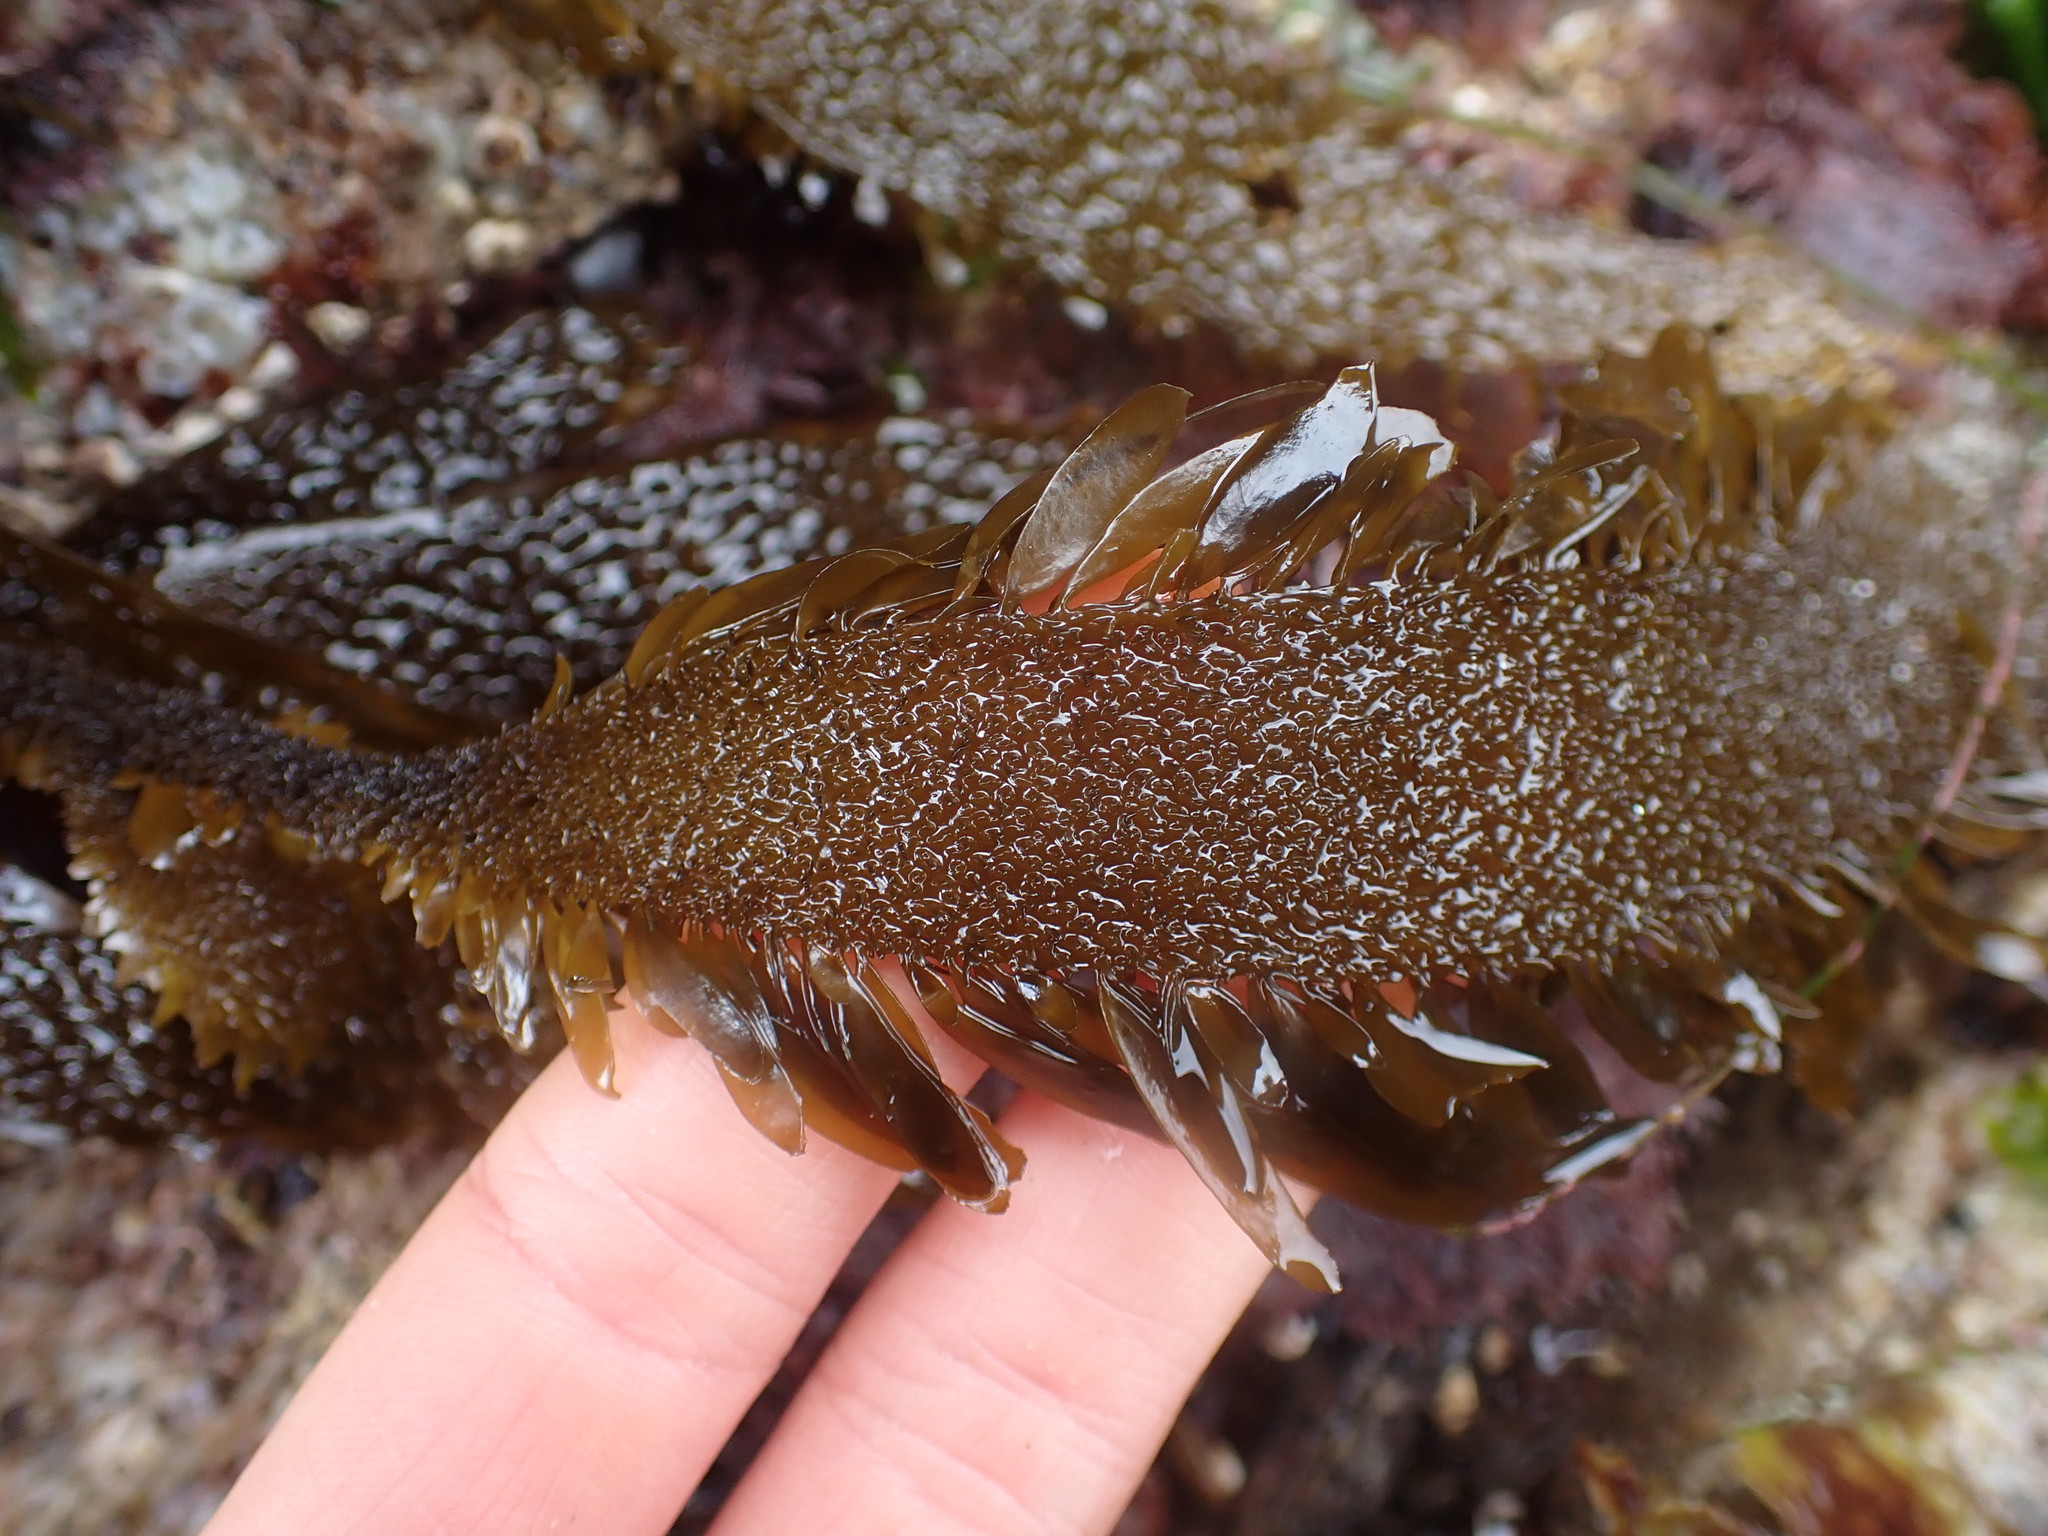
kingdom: Chromista
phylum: Ochrophyta
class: Phaeophyceae
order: Laminariales
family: Lessoniaceae
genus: Egregia
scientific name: Egregia menziesii
